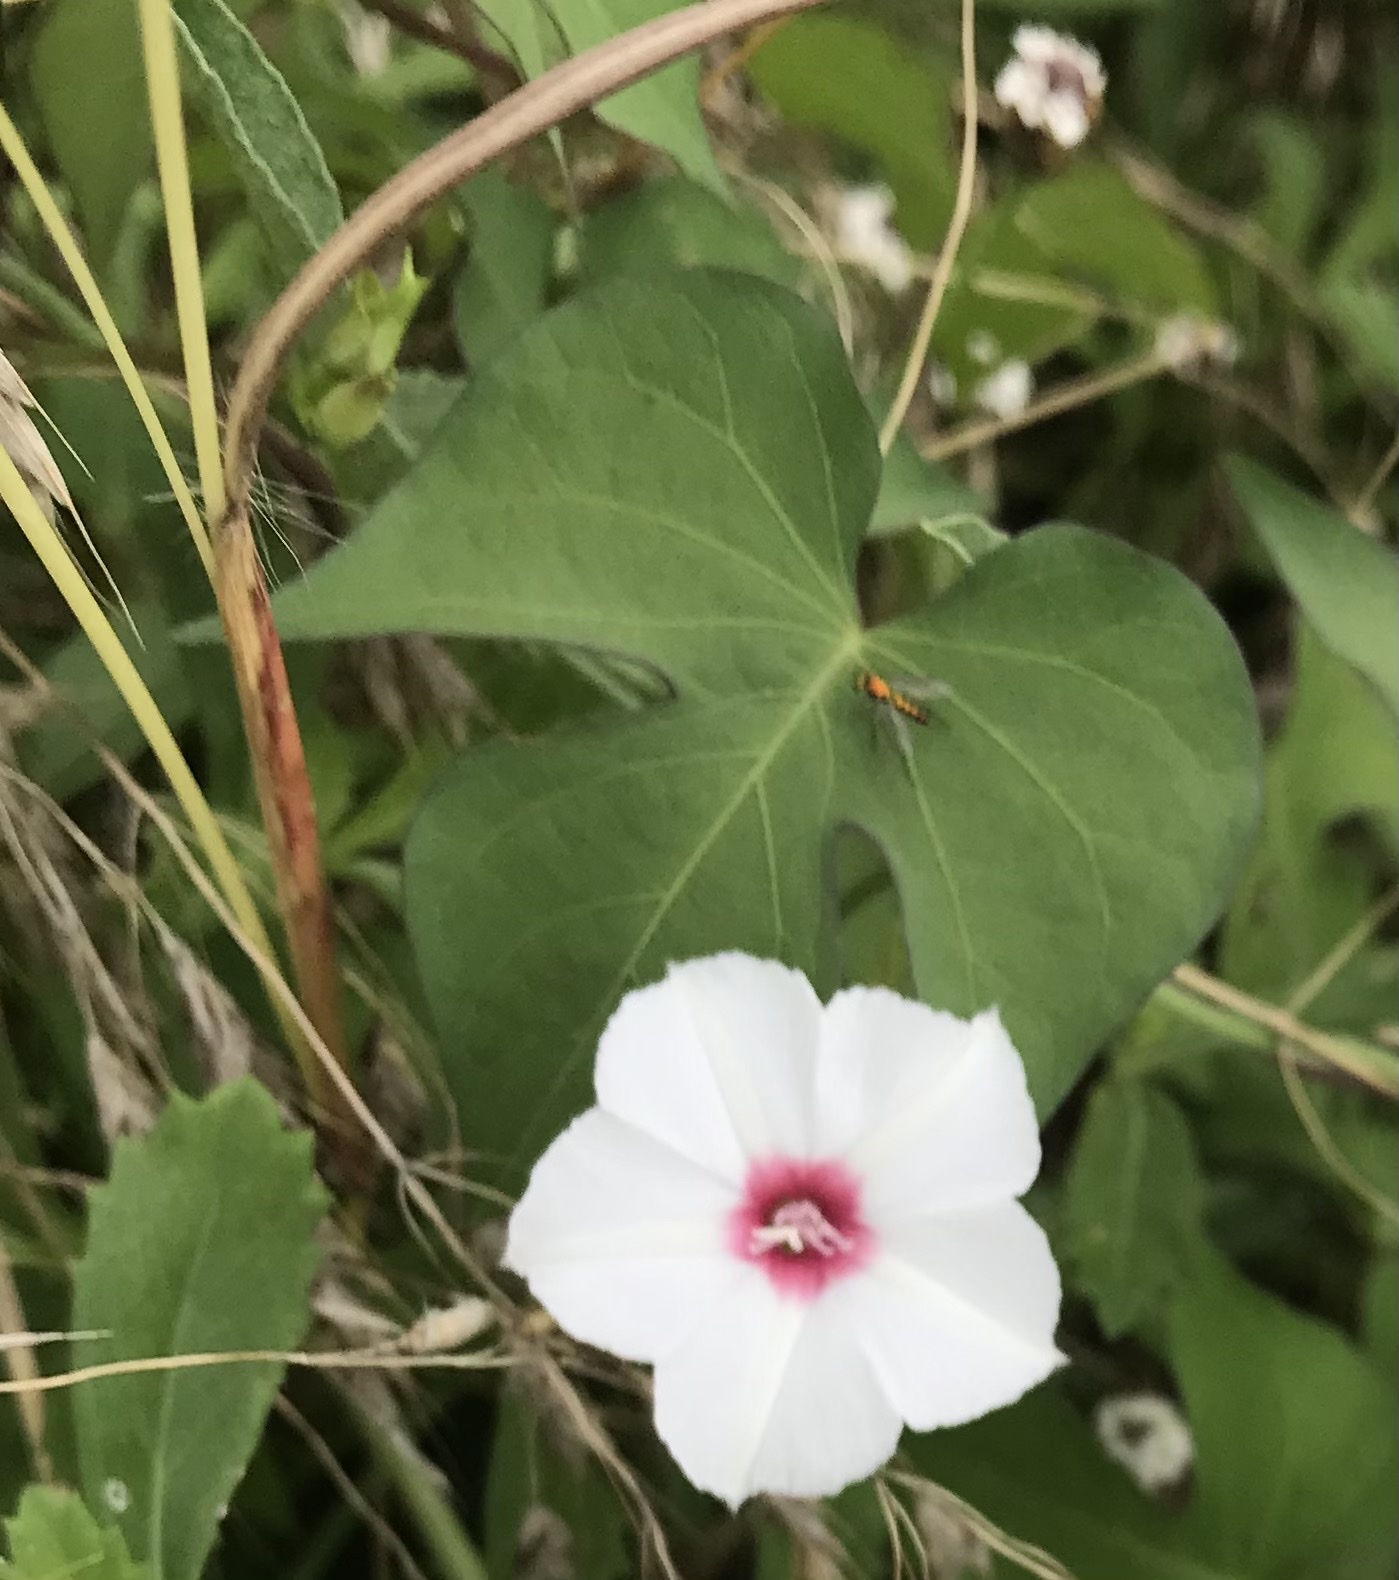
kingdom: Plantae
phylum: Tracheophyta
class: Magnoliopsida
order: Solanales
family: Convolvulaceae
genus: Convolvulus
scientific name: Convolvulus equitans
